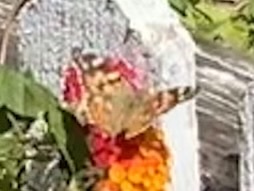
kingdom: Animalia
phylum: Arthropoda
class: Insecta
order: Lepidoptera
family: Nymphalidae
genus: Vanessa
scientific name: Vanessa cardui
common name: Painted lady
